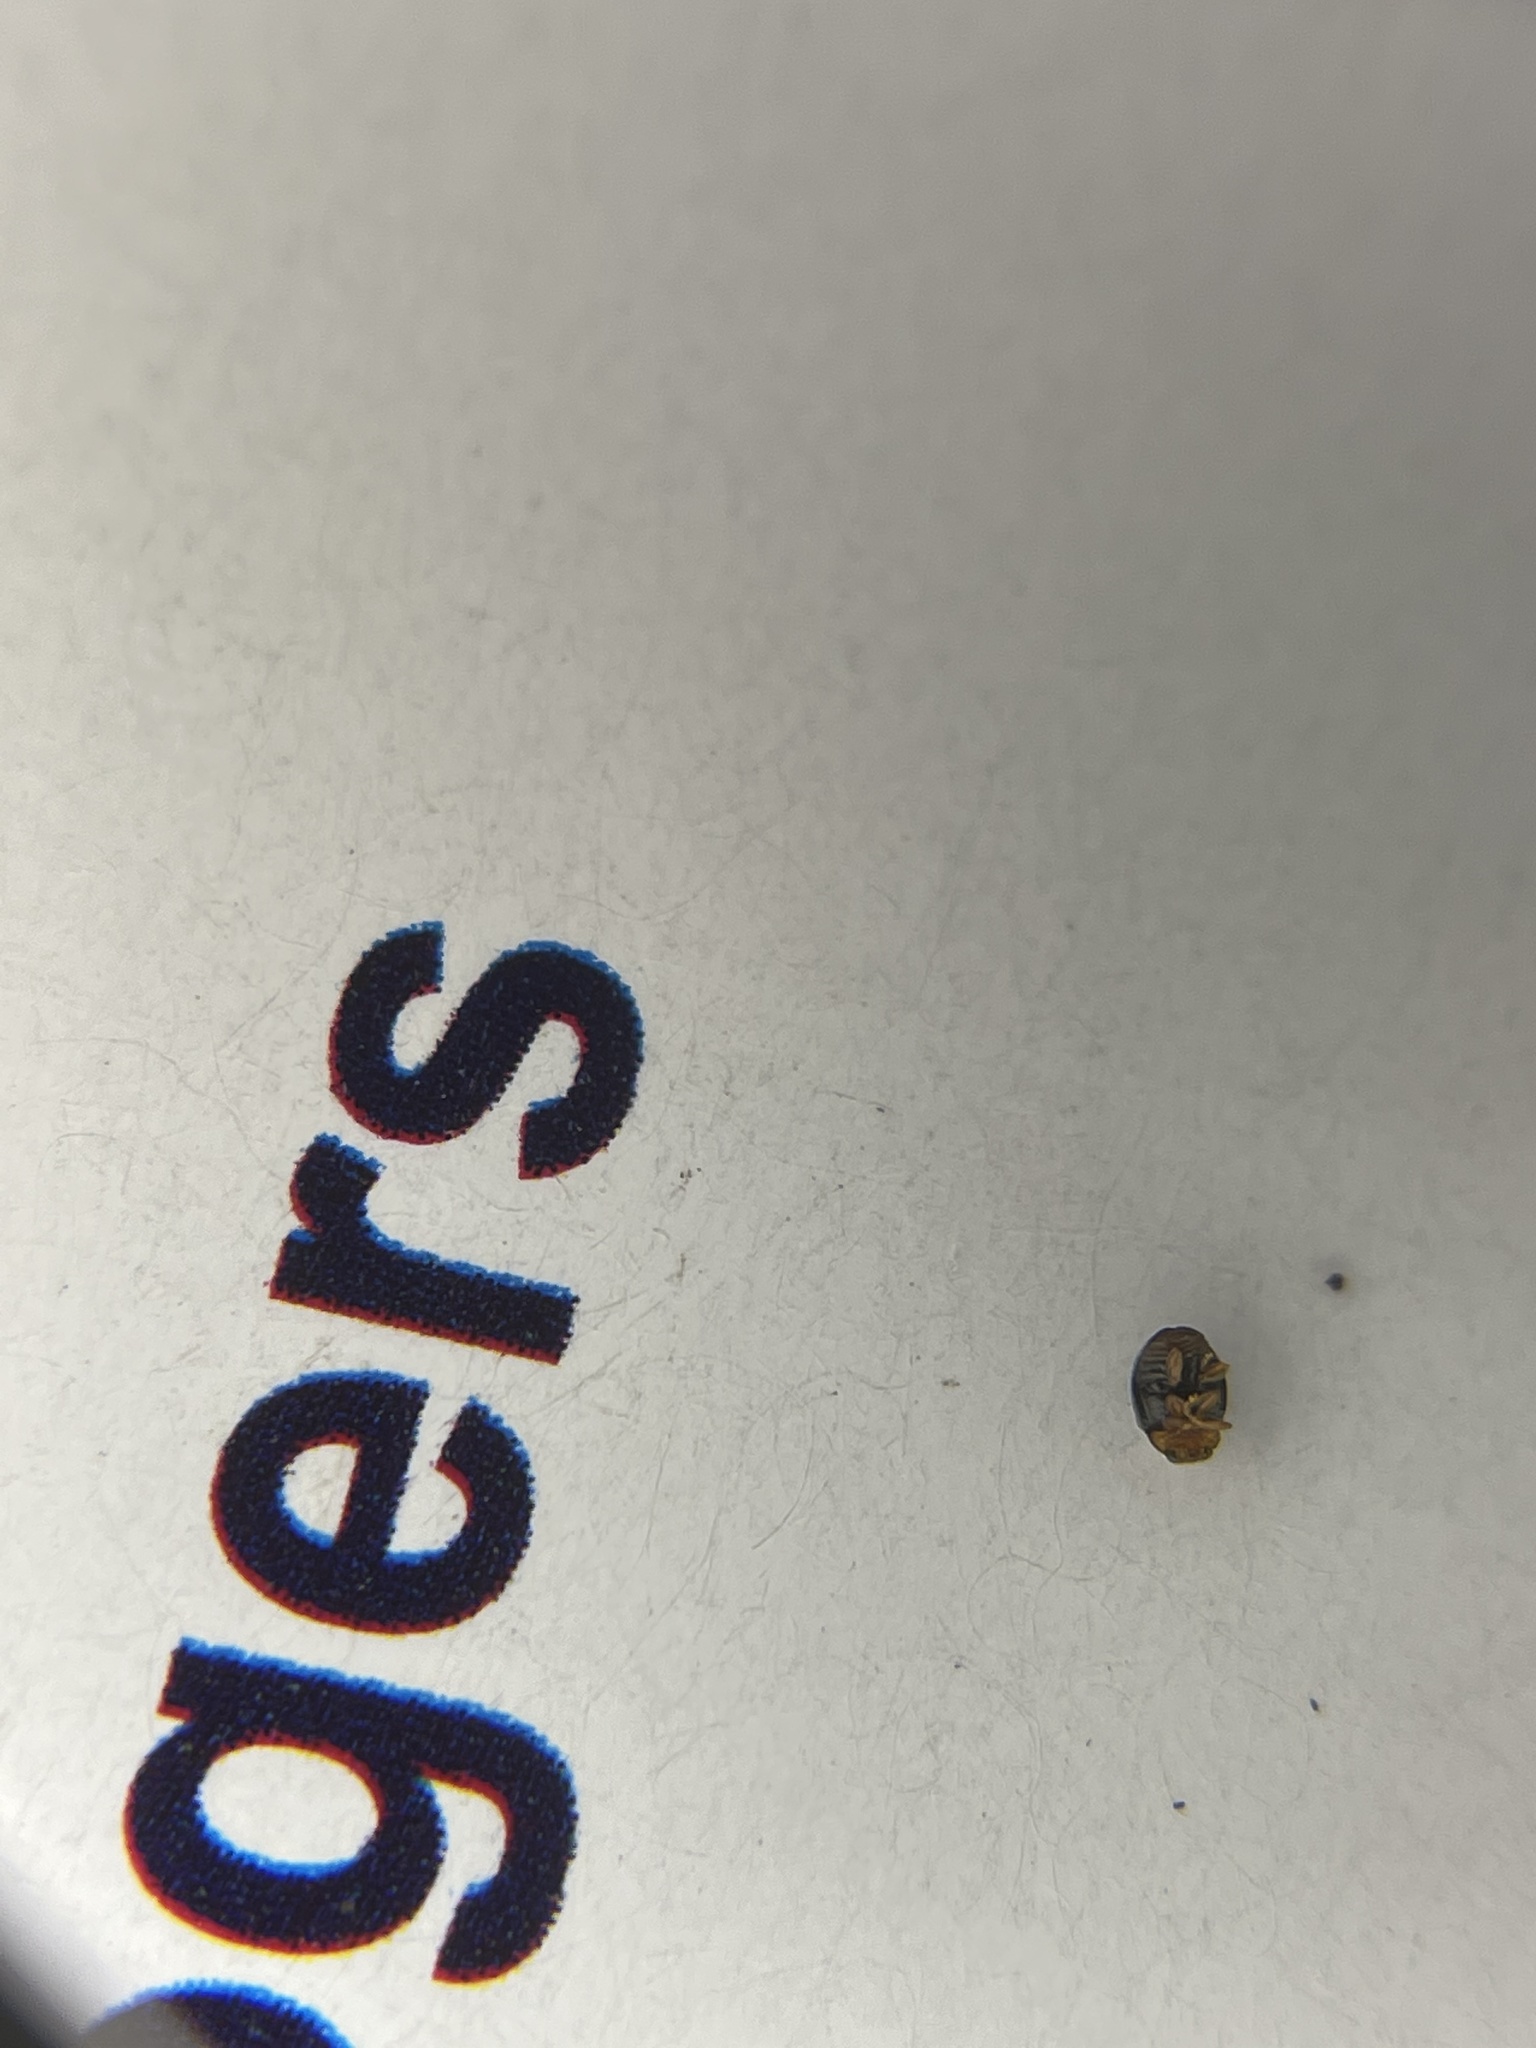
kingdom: Animalia
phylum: Arthropoda
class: Insecta
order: Coleoptera
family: Coccinellidae
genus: Diomus
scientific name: Diomus roseicollis
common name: Ladybird beetle
